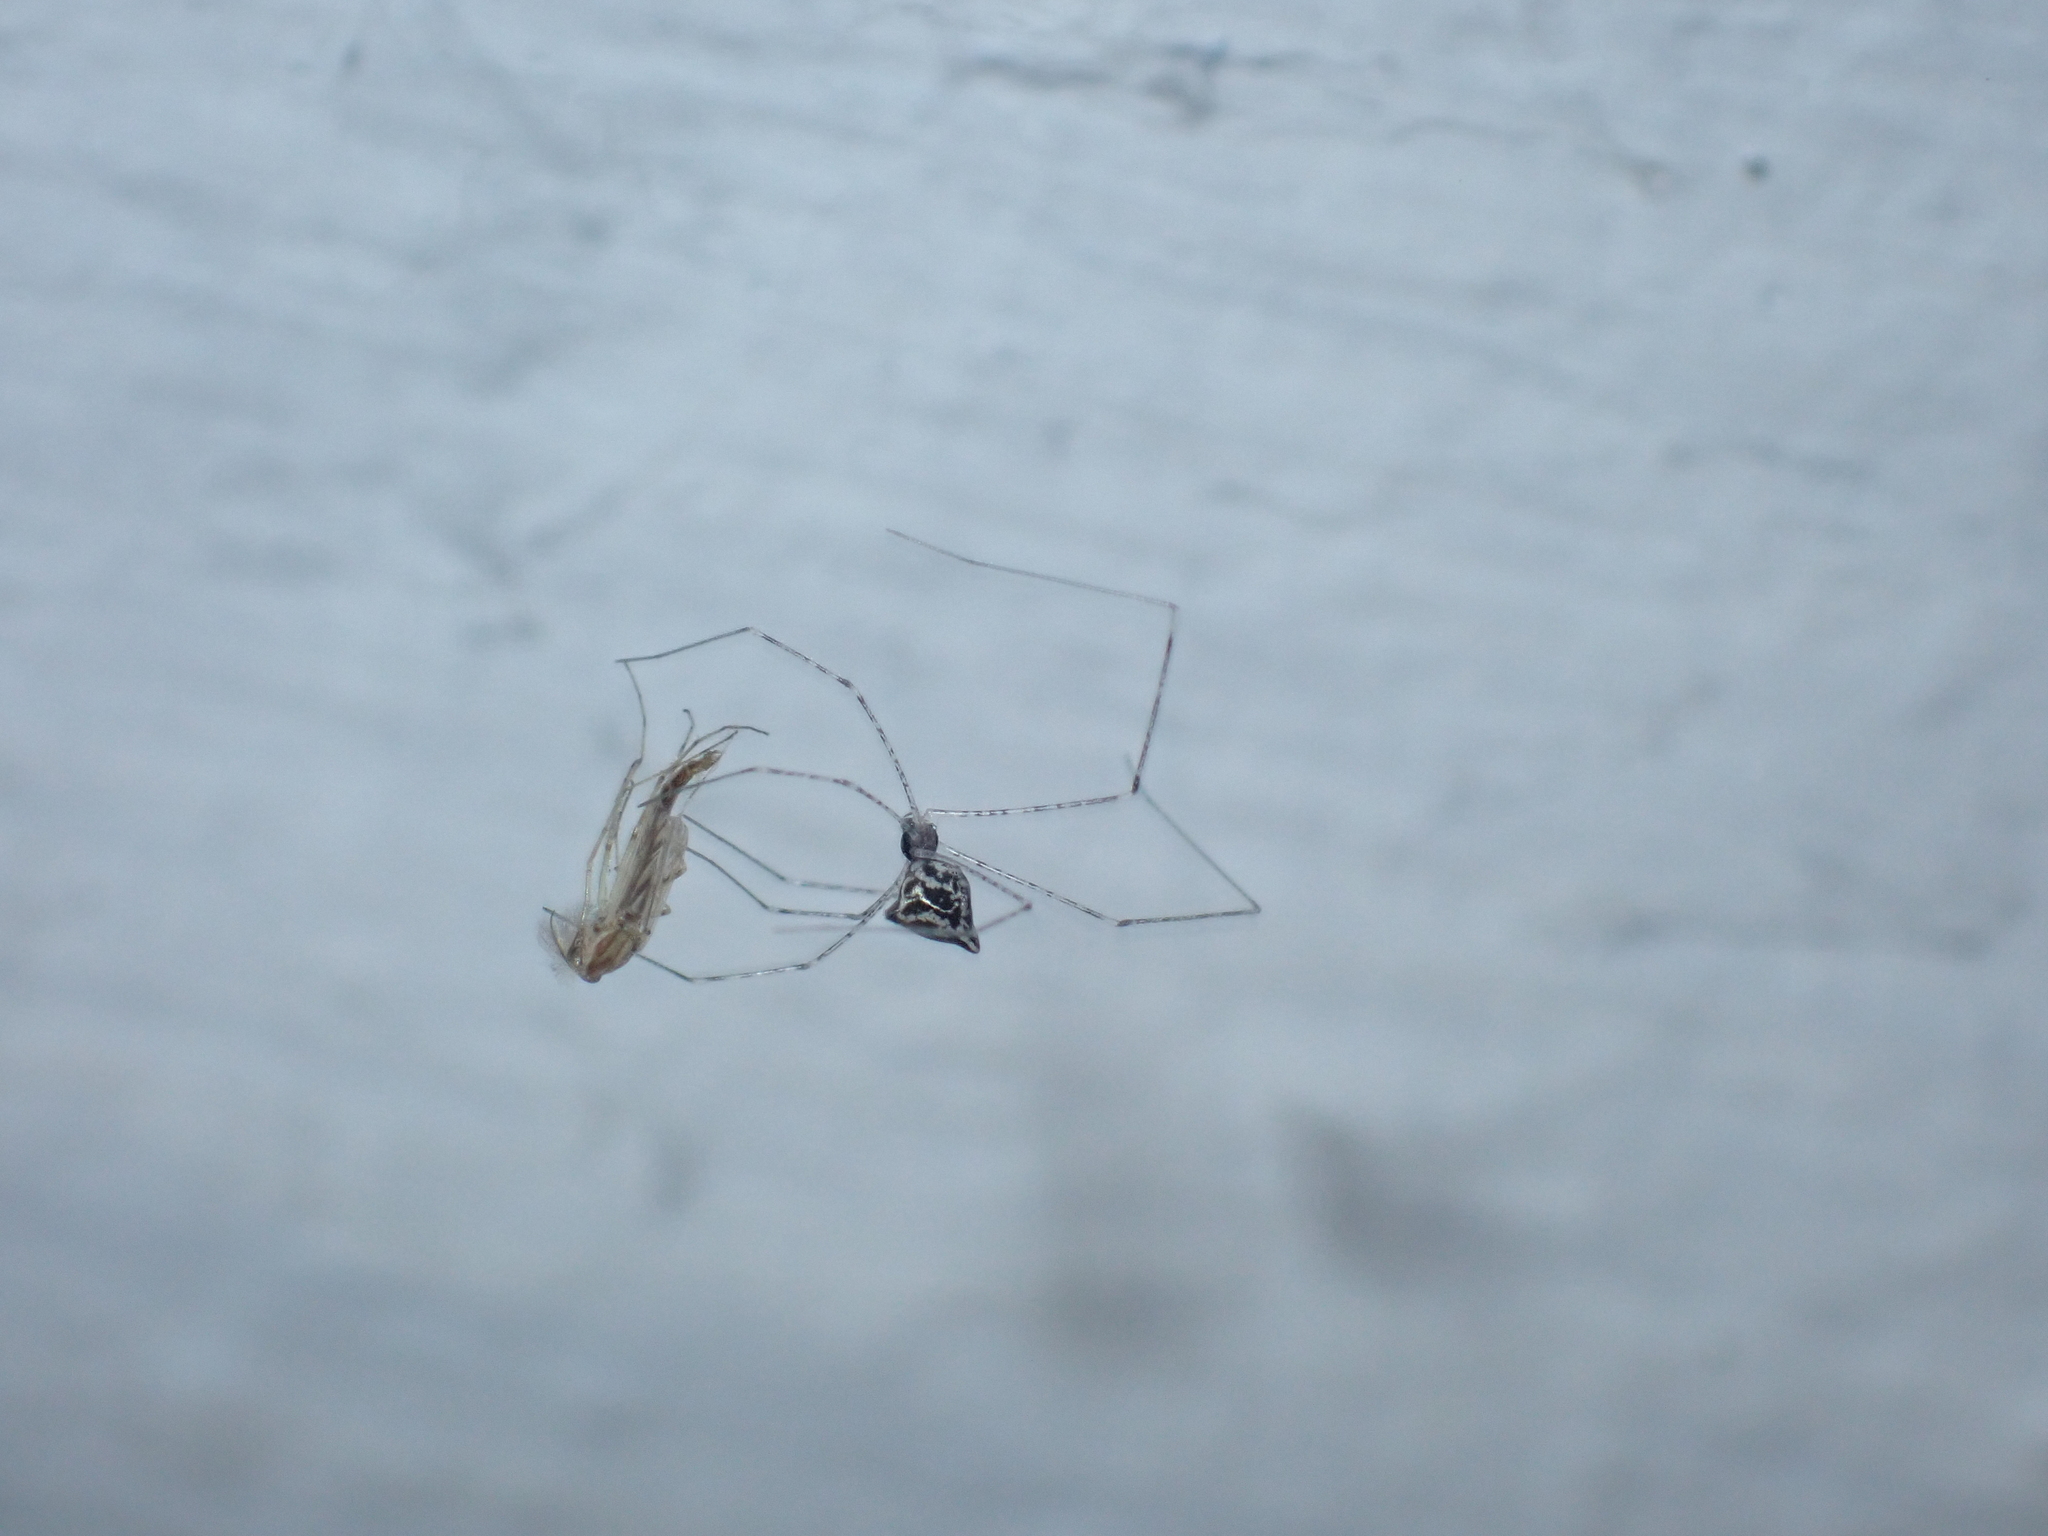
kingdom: Animalia
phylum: Arthropoda
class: Arachnida
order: Araneae
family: Pholcidae
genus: Crossopriza
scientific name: Crossopriza lyoni
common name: Cellar spiders
